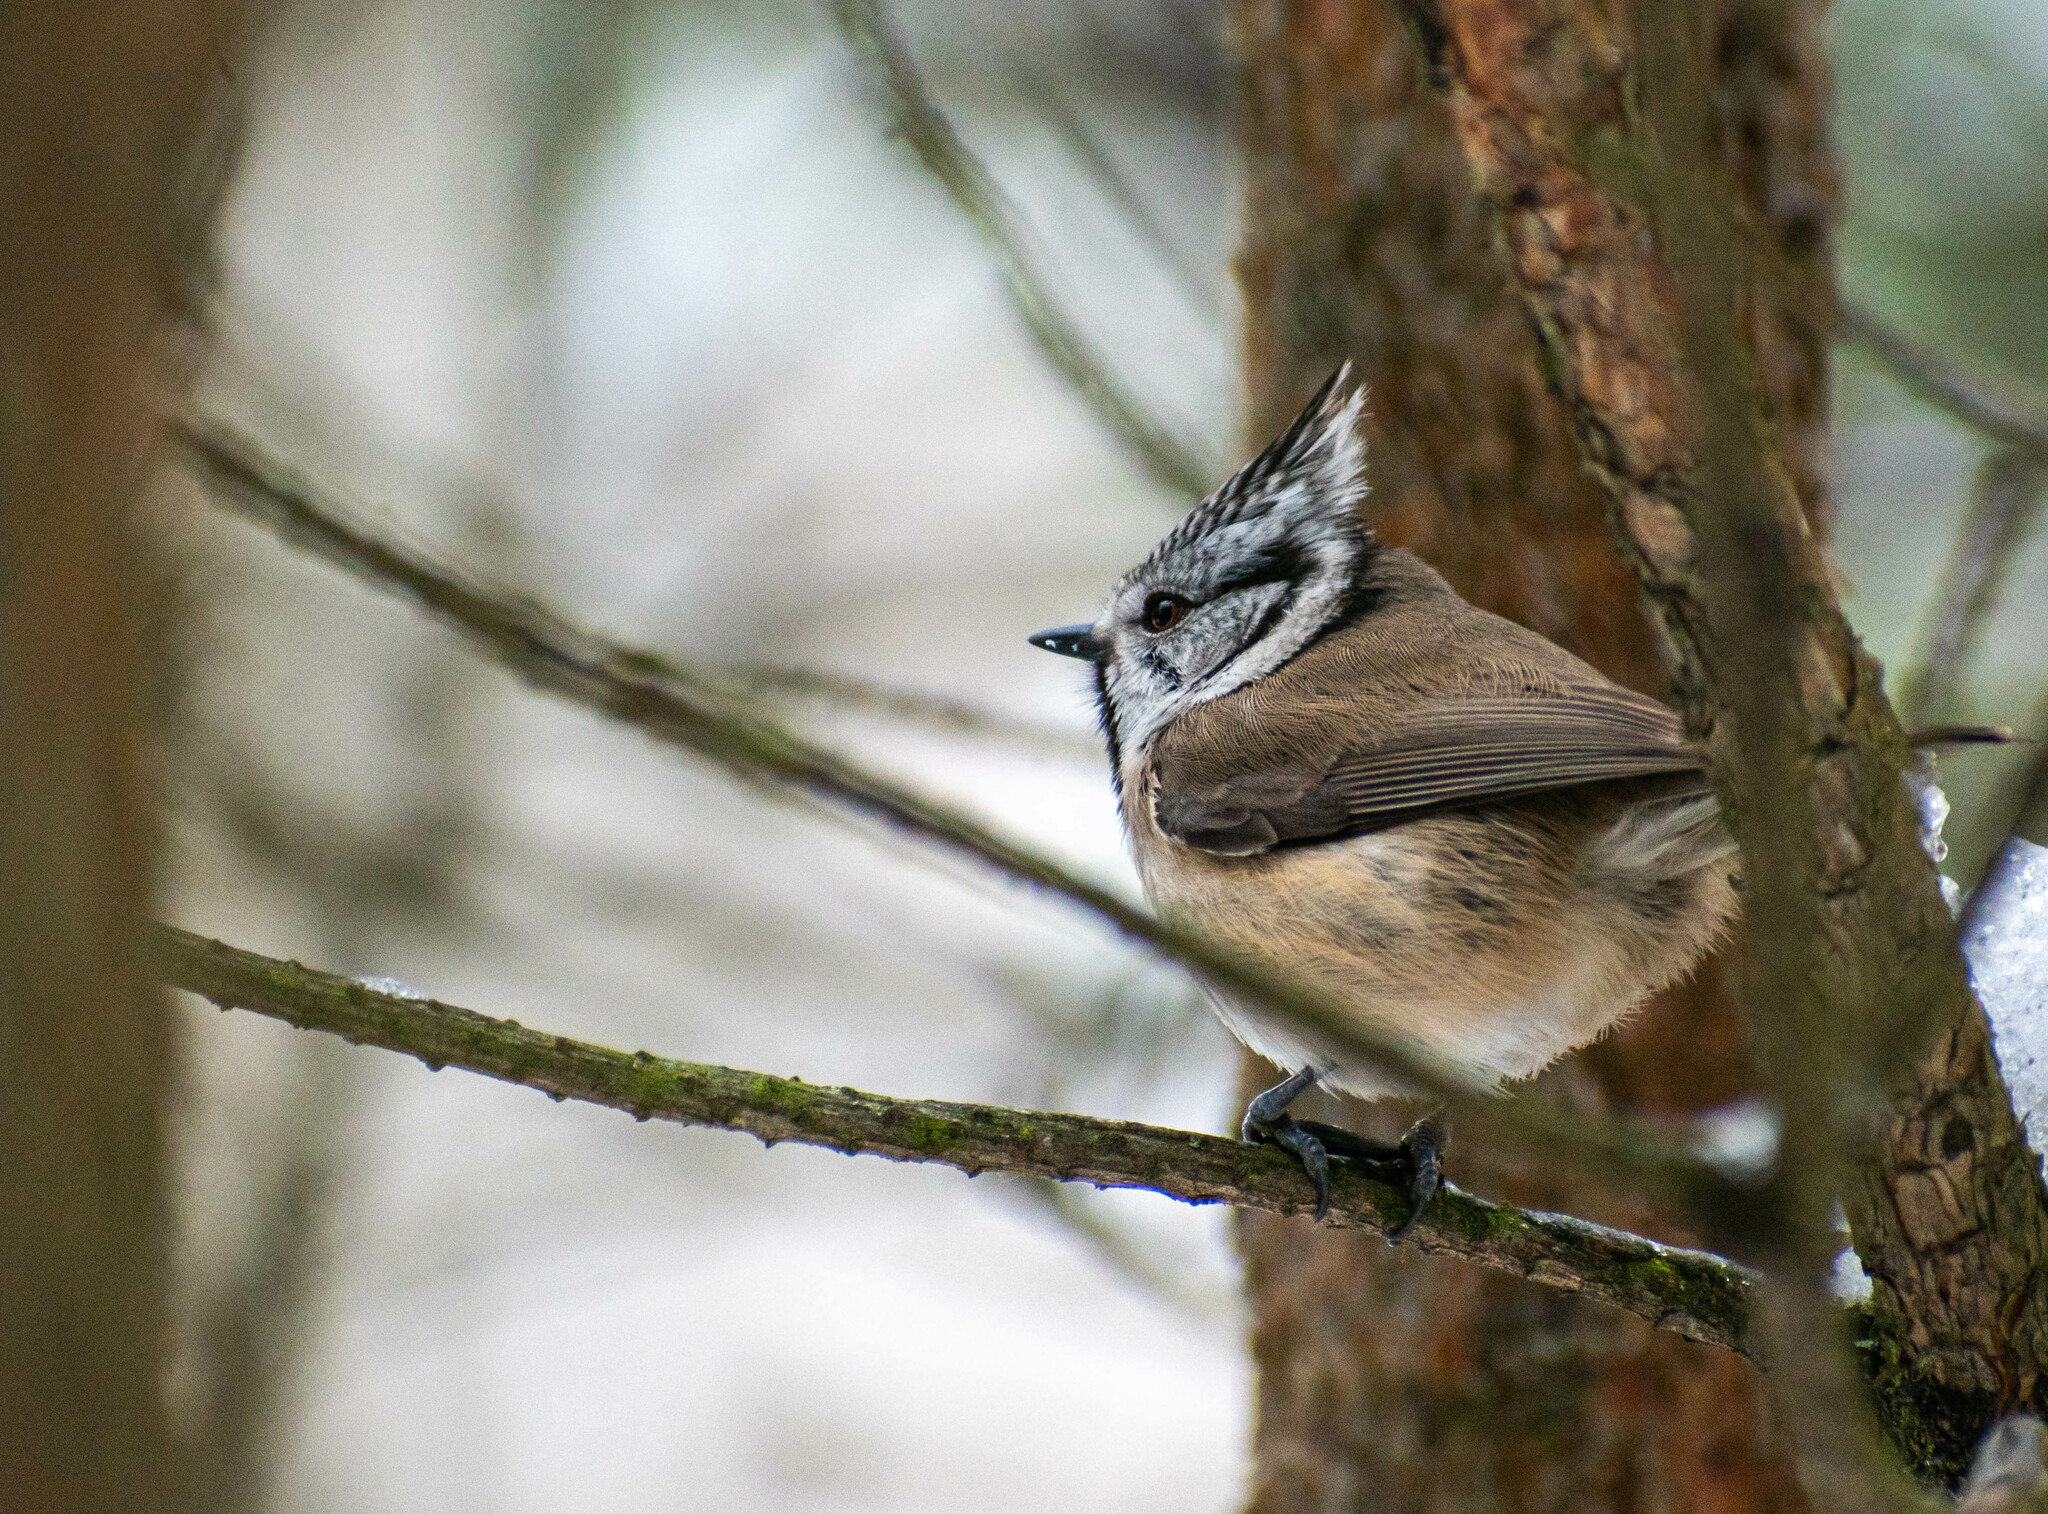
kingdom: Animalia
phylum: Chordata
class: Aves
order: Passeriformes
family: Paridae
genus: Lophophanes
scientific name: Lophophanes cristatus
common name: European crested tit
